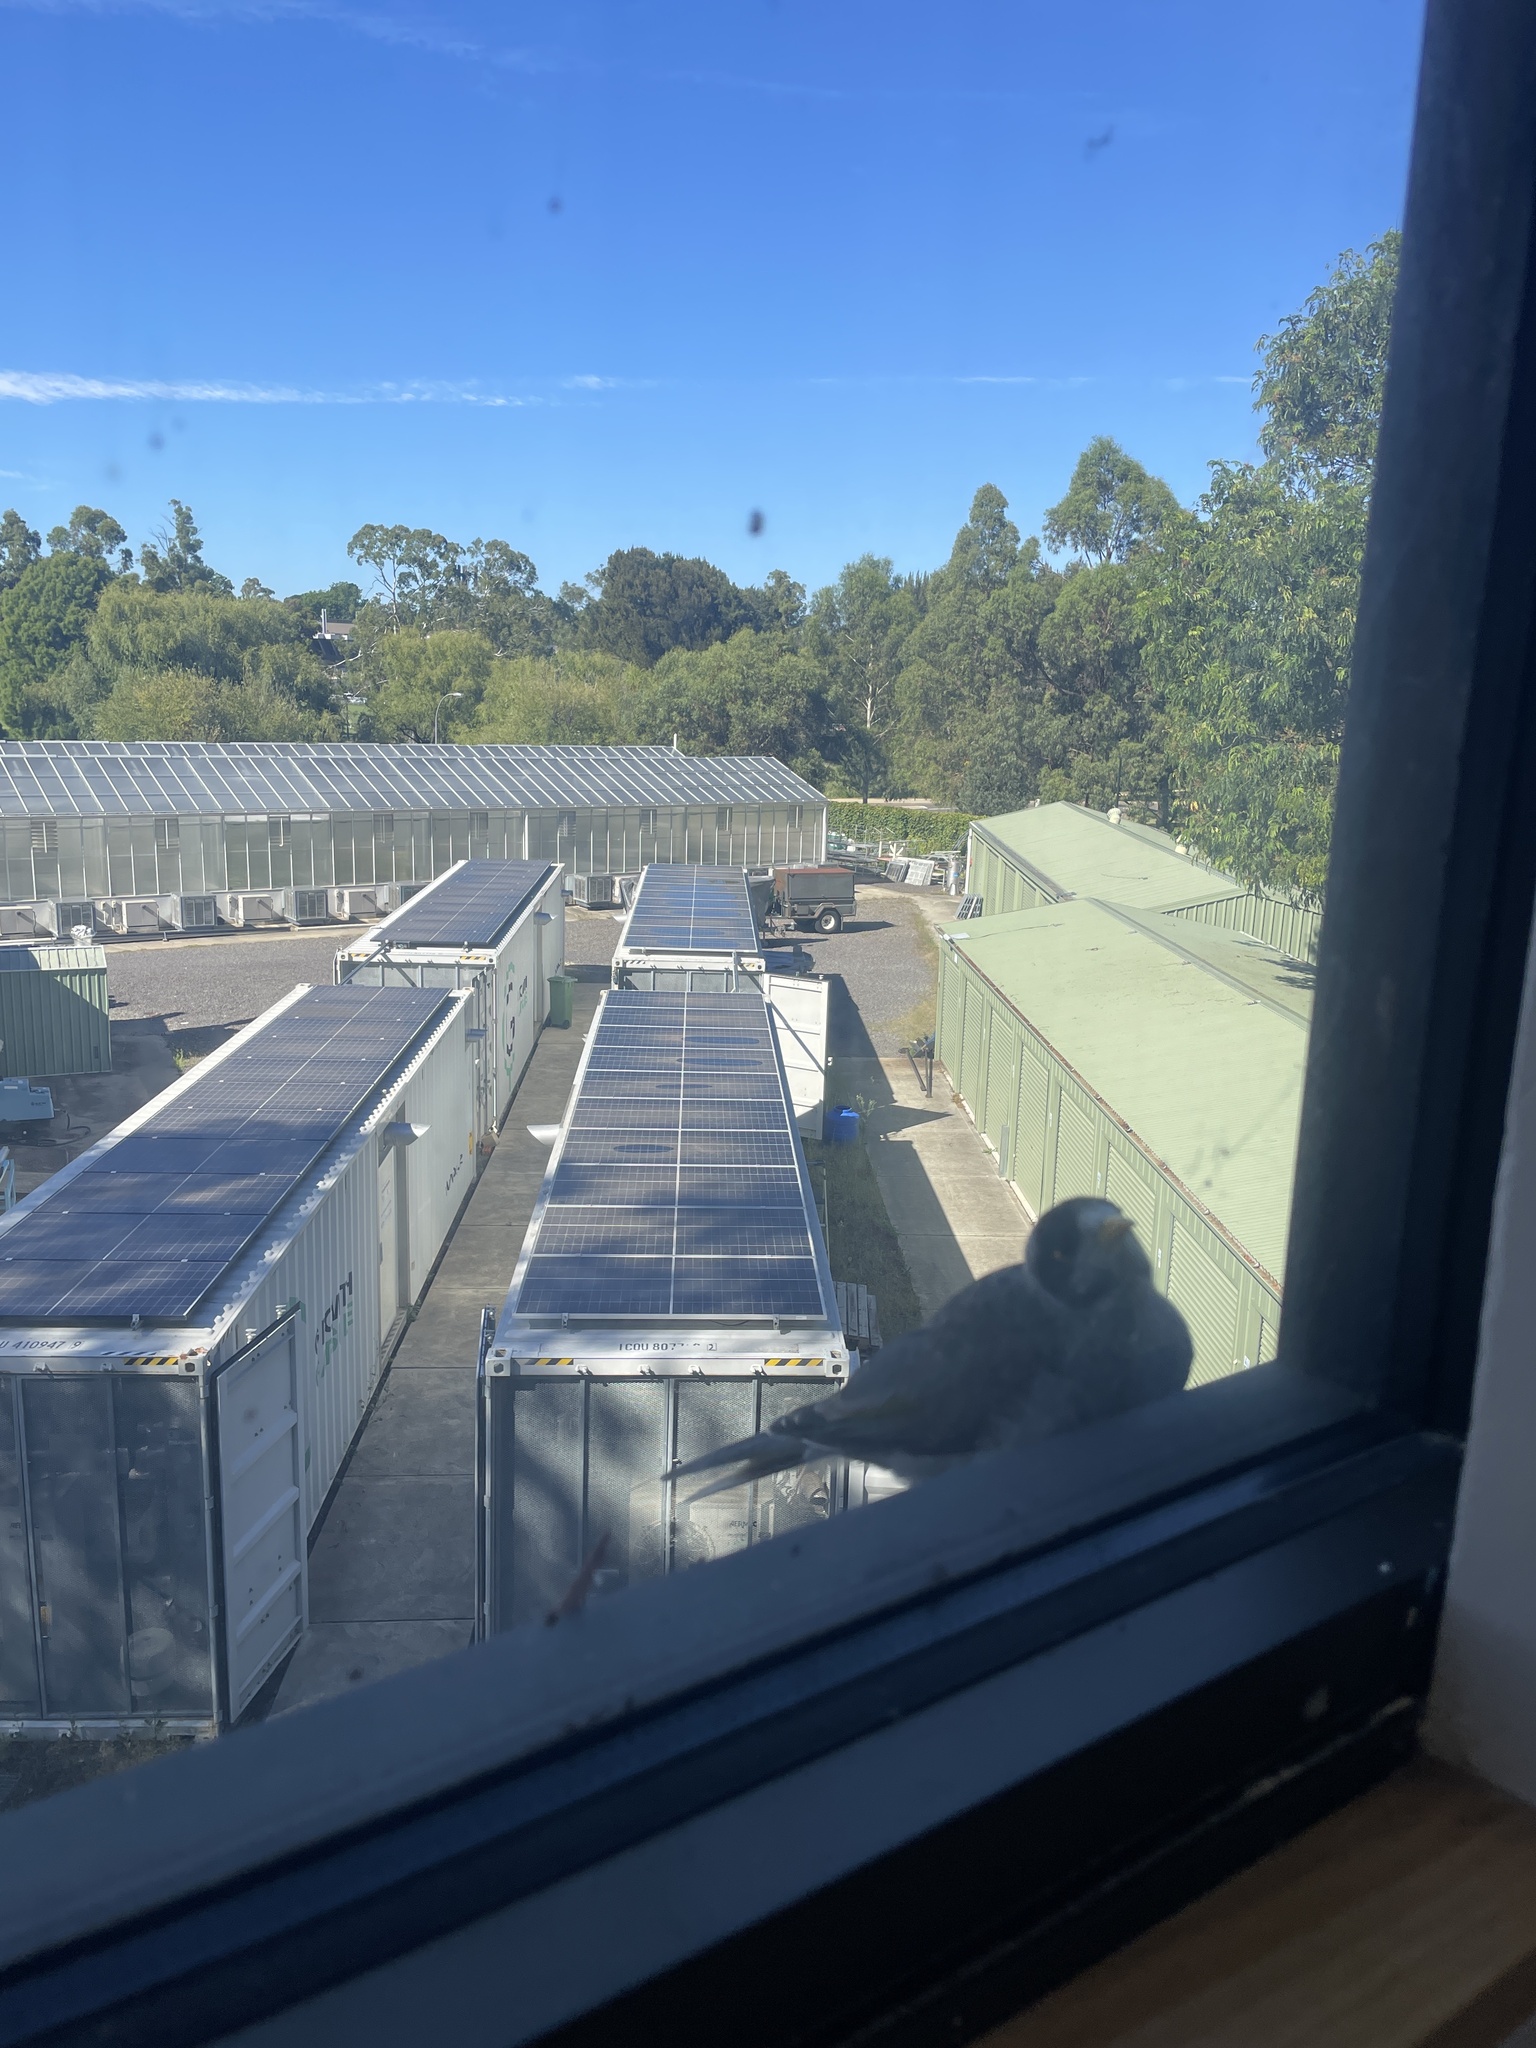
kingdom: Animalia
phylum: Chordata
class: Aves
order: Passeriformes
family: Meliphagidae
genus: Manorina
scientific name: Manorina melanocephala
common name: Noisy miner
